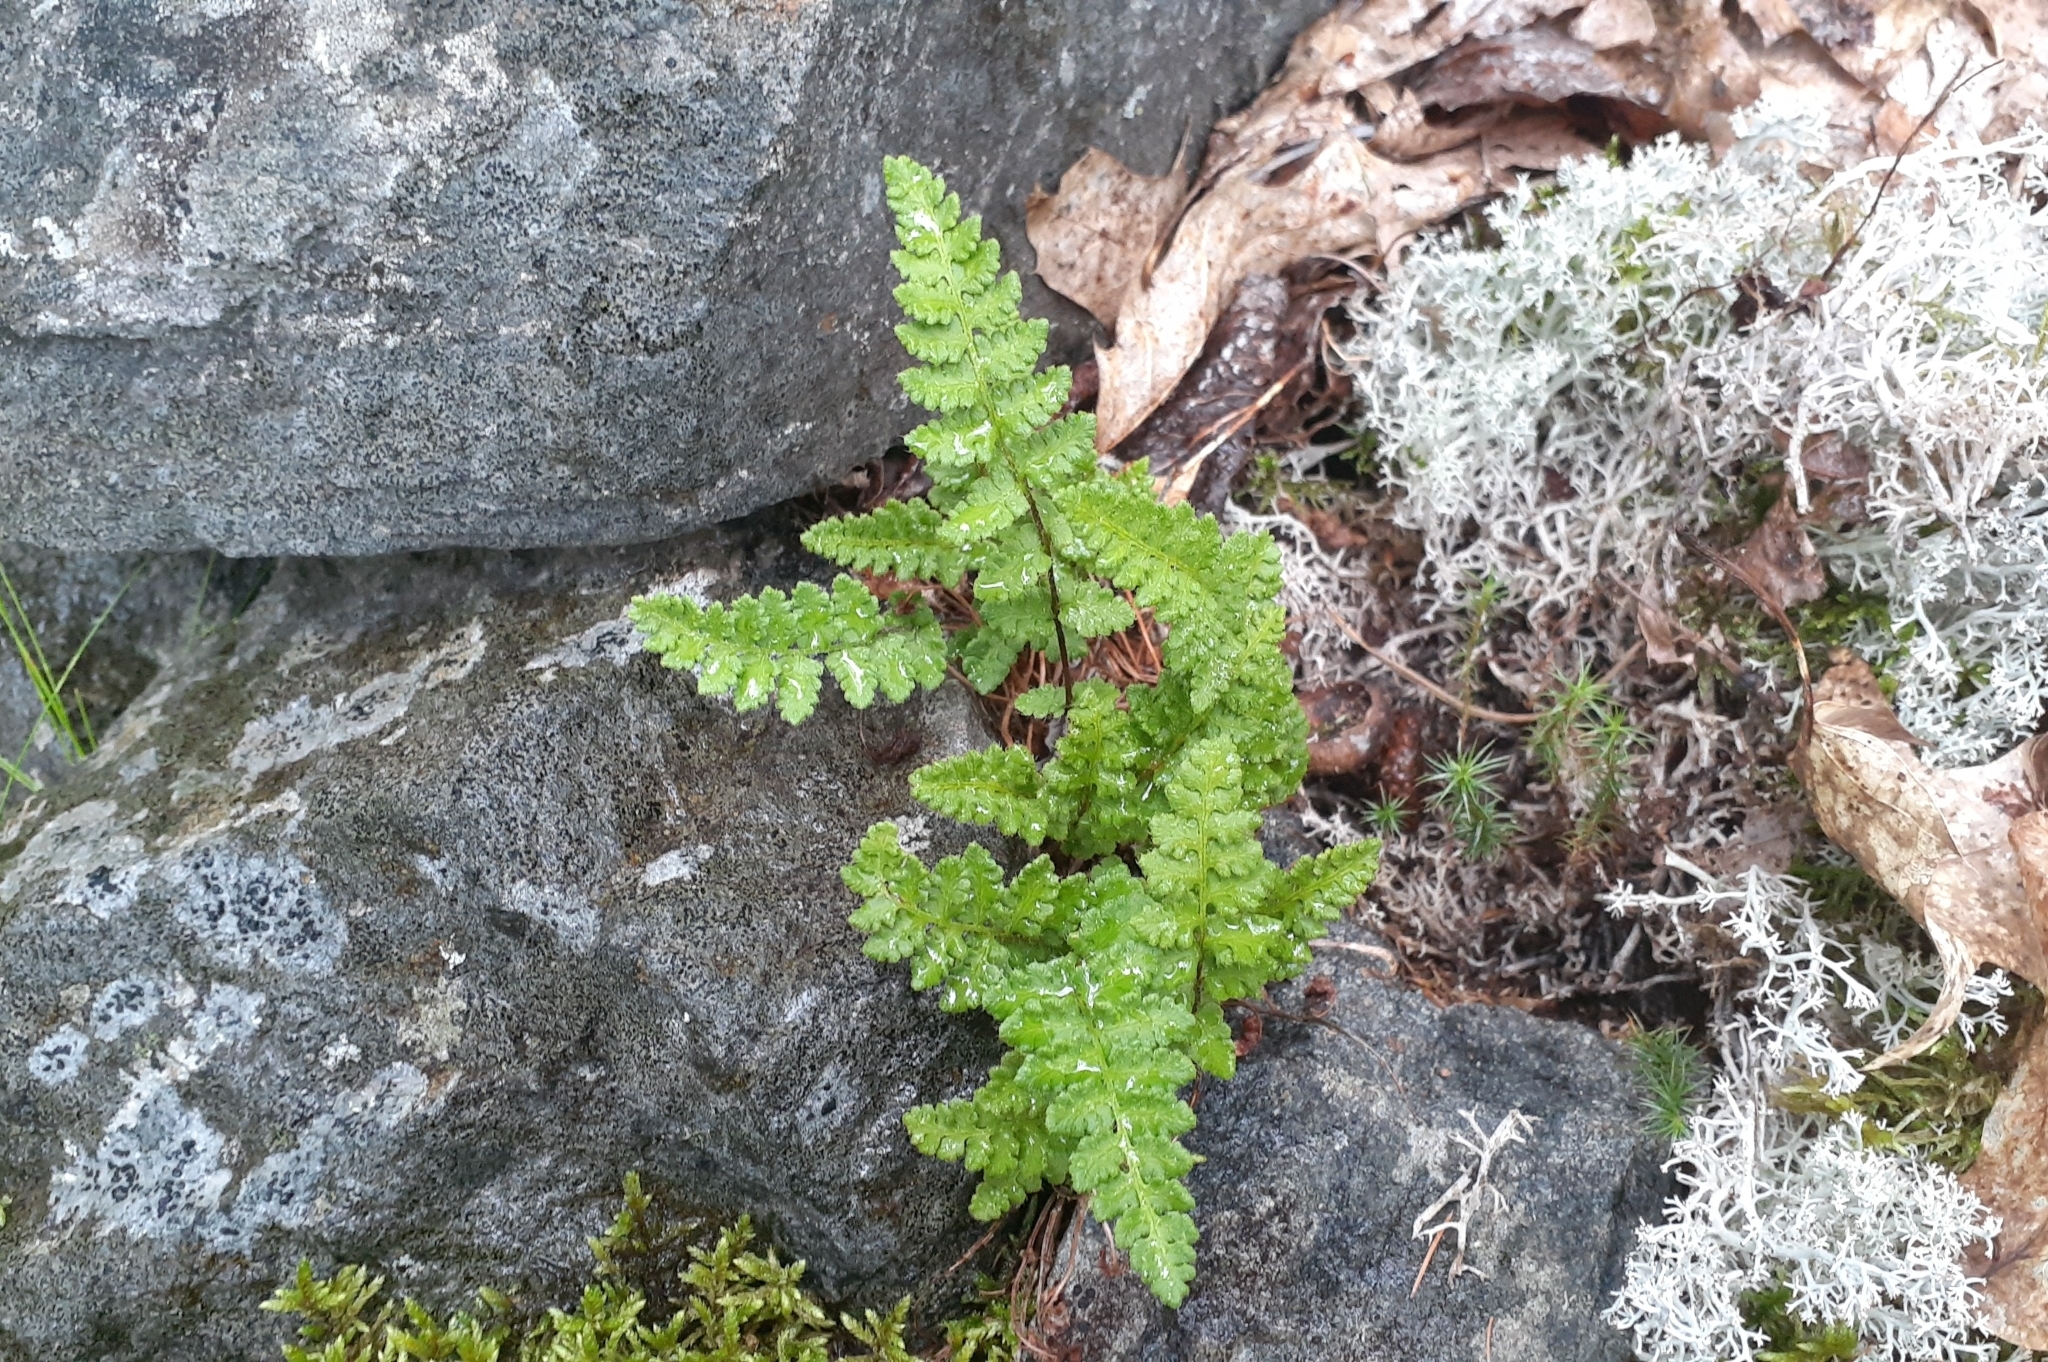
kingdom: Plantae
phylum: Tracheophyta
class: Polypodiopsida
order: Polypodiales
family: Woodsiaceae
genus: Woodsia
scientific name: Woodsia ilvensis
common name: Fragrant woodsia
